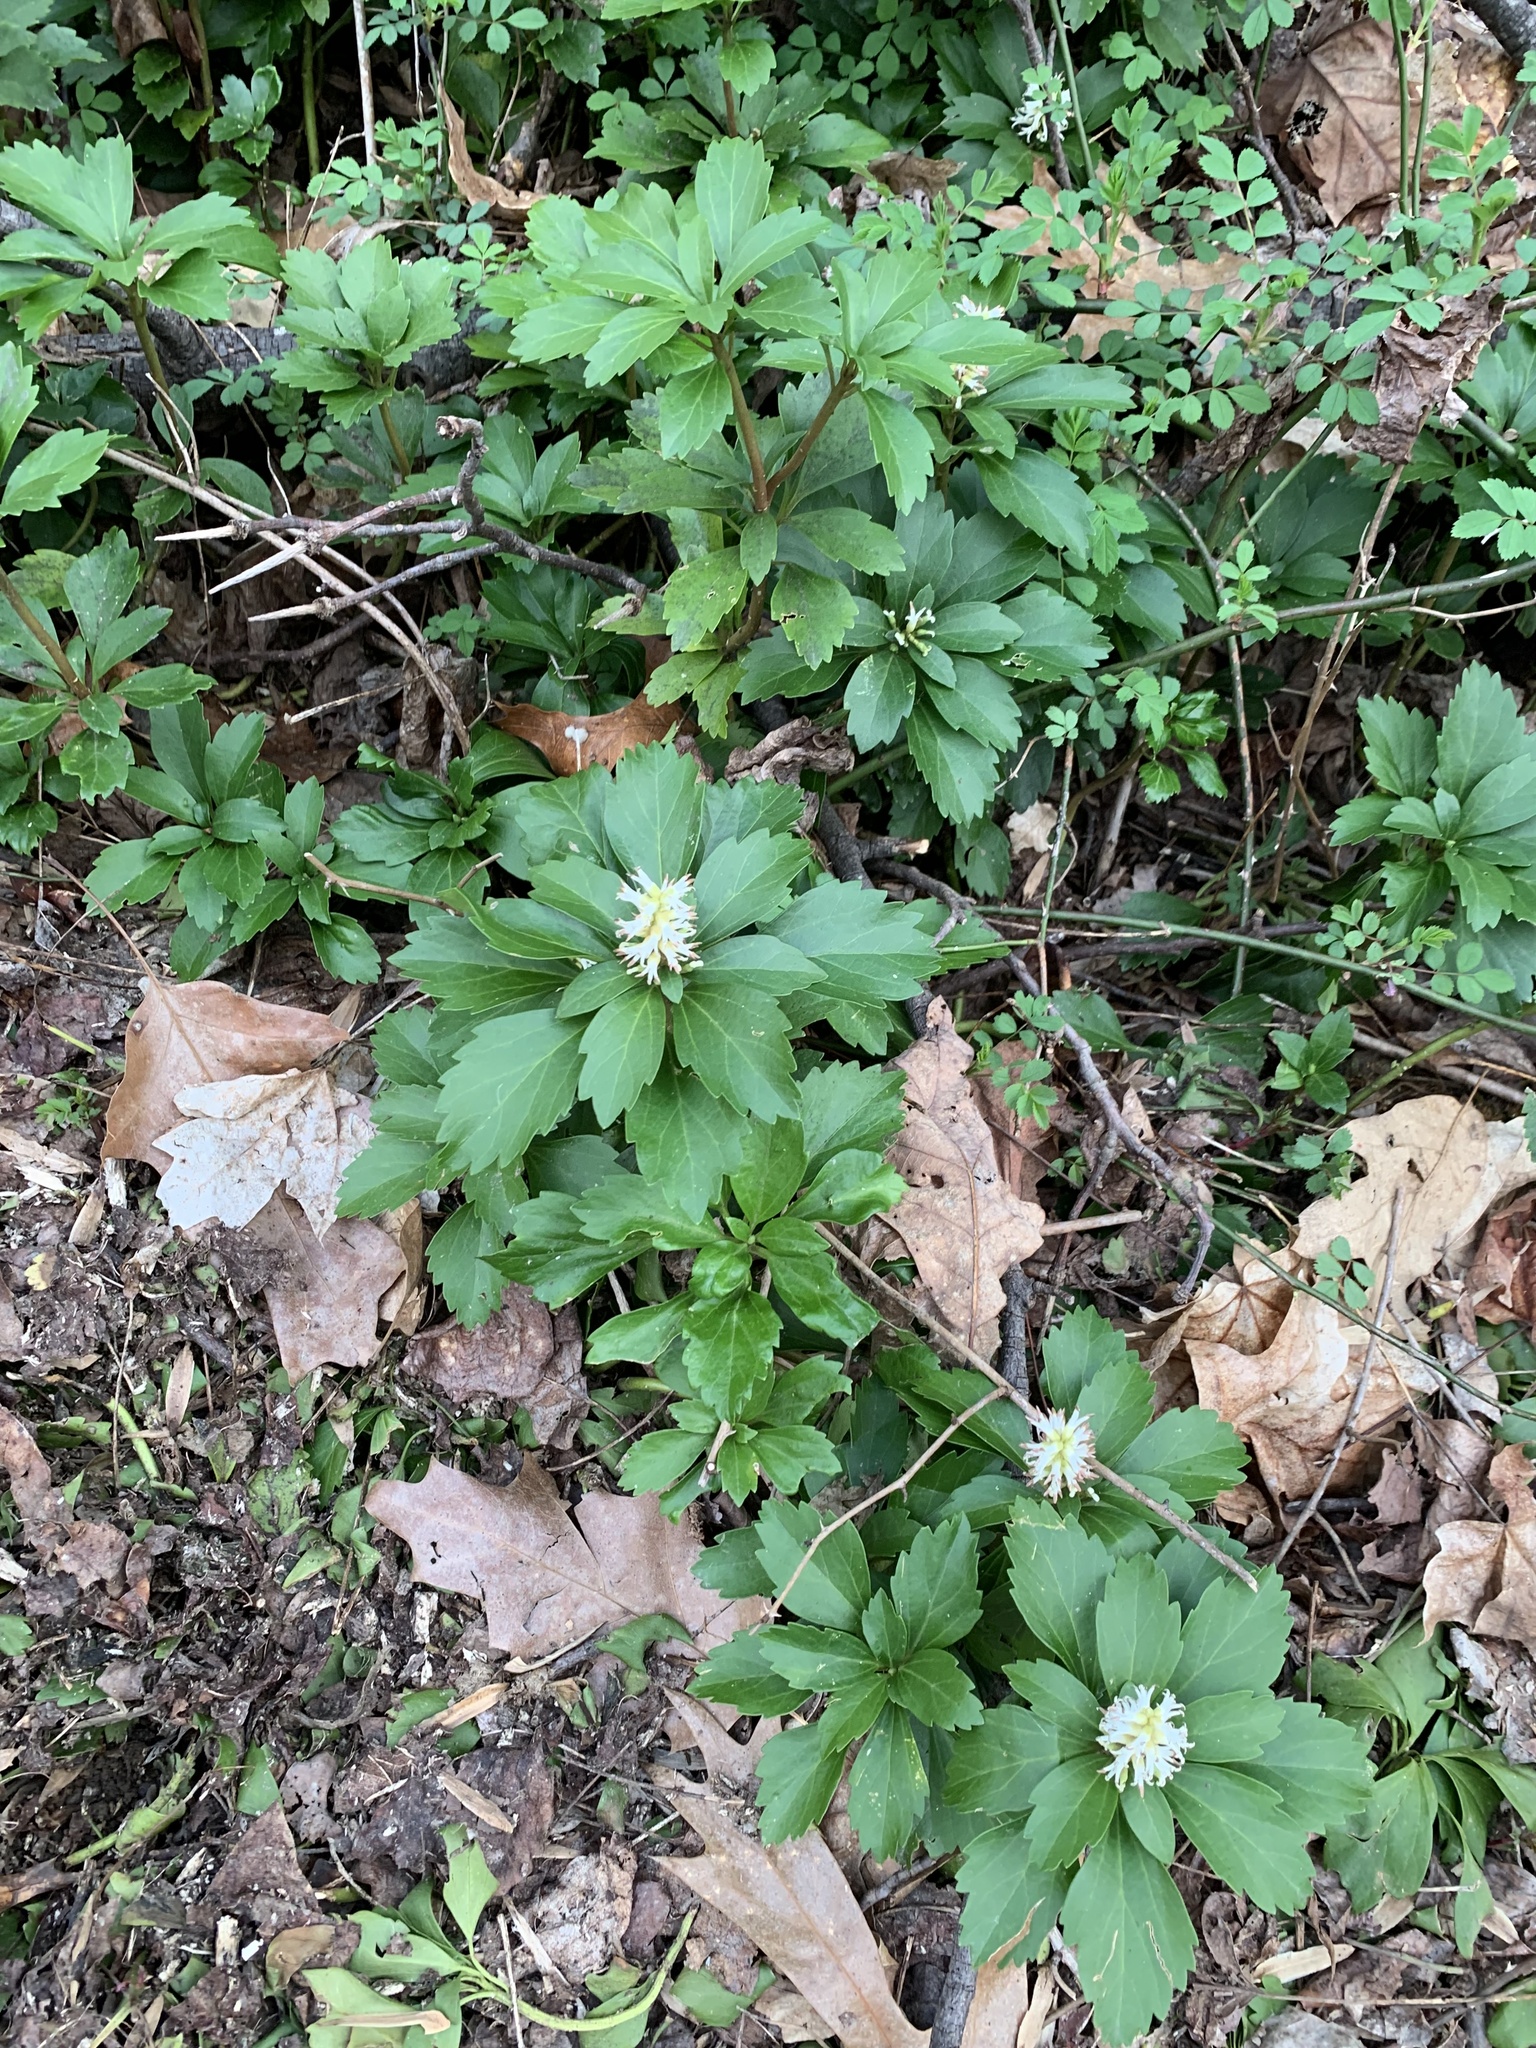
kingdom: Plantae
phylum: Tracheophyta
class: Magnoliopsida
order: Buxales
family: Buxaceae
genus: Pachysandra
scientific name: Pachysandra terminalis
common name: Japanese pachysandra
